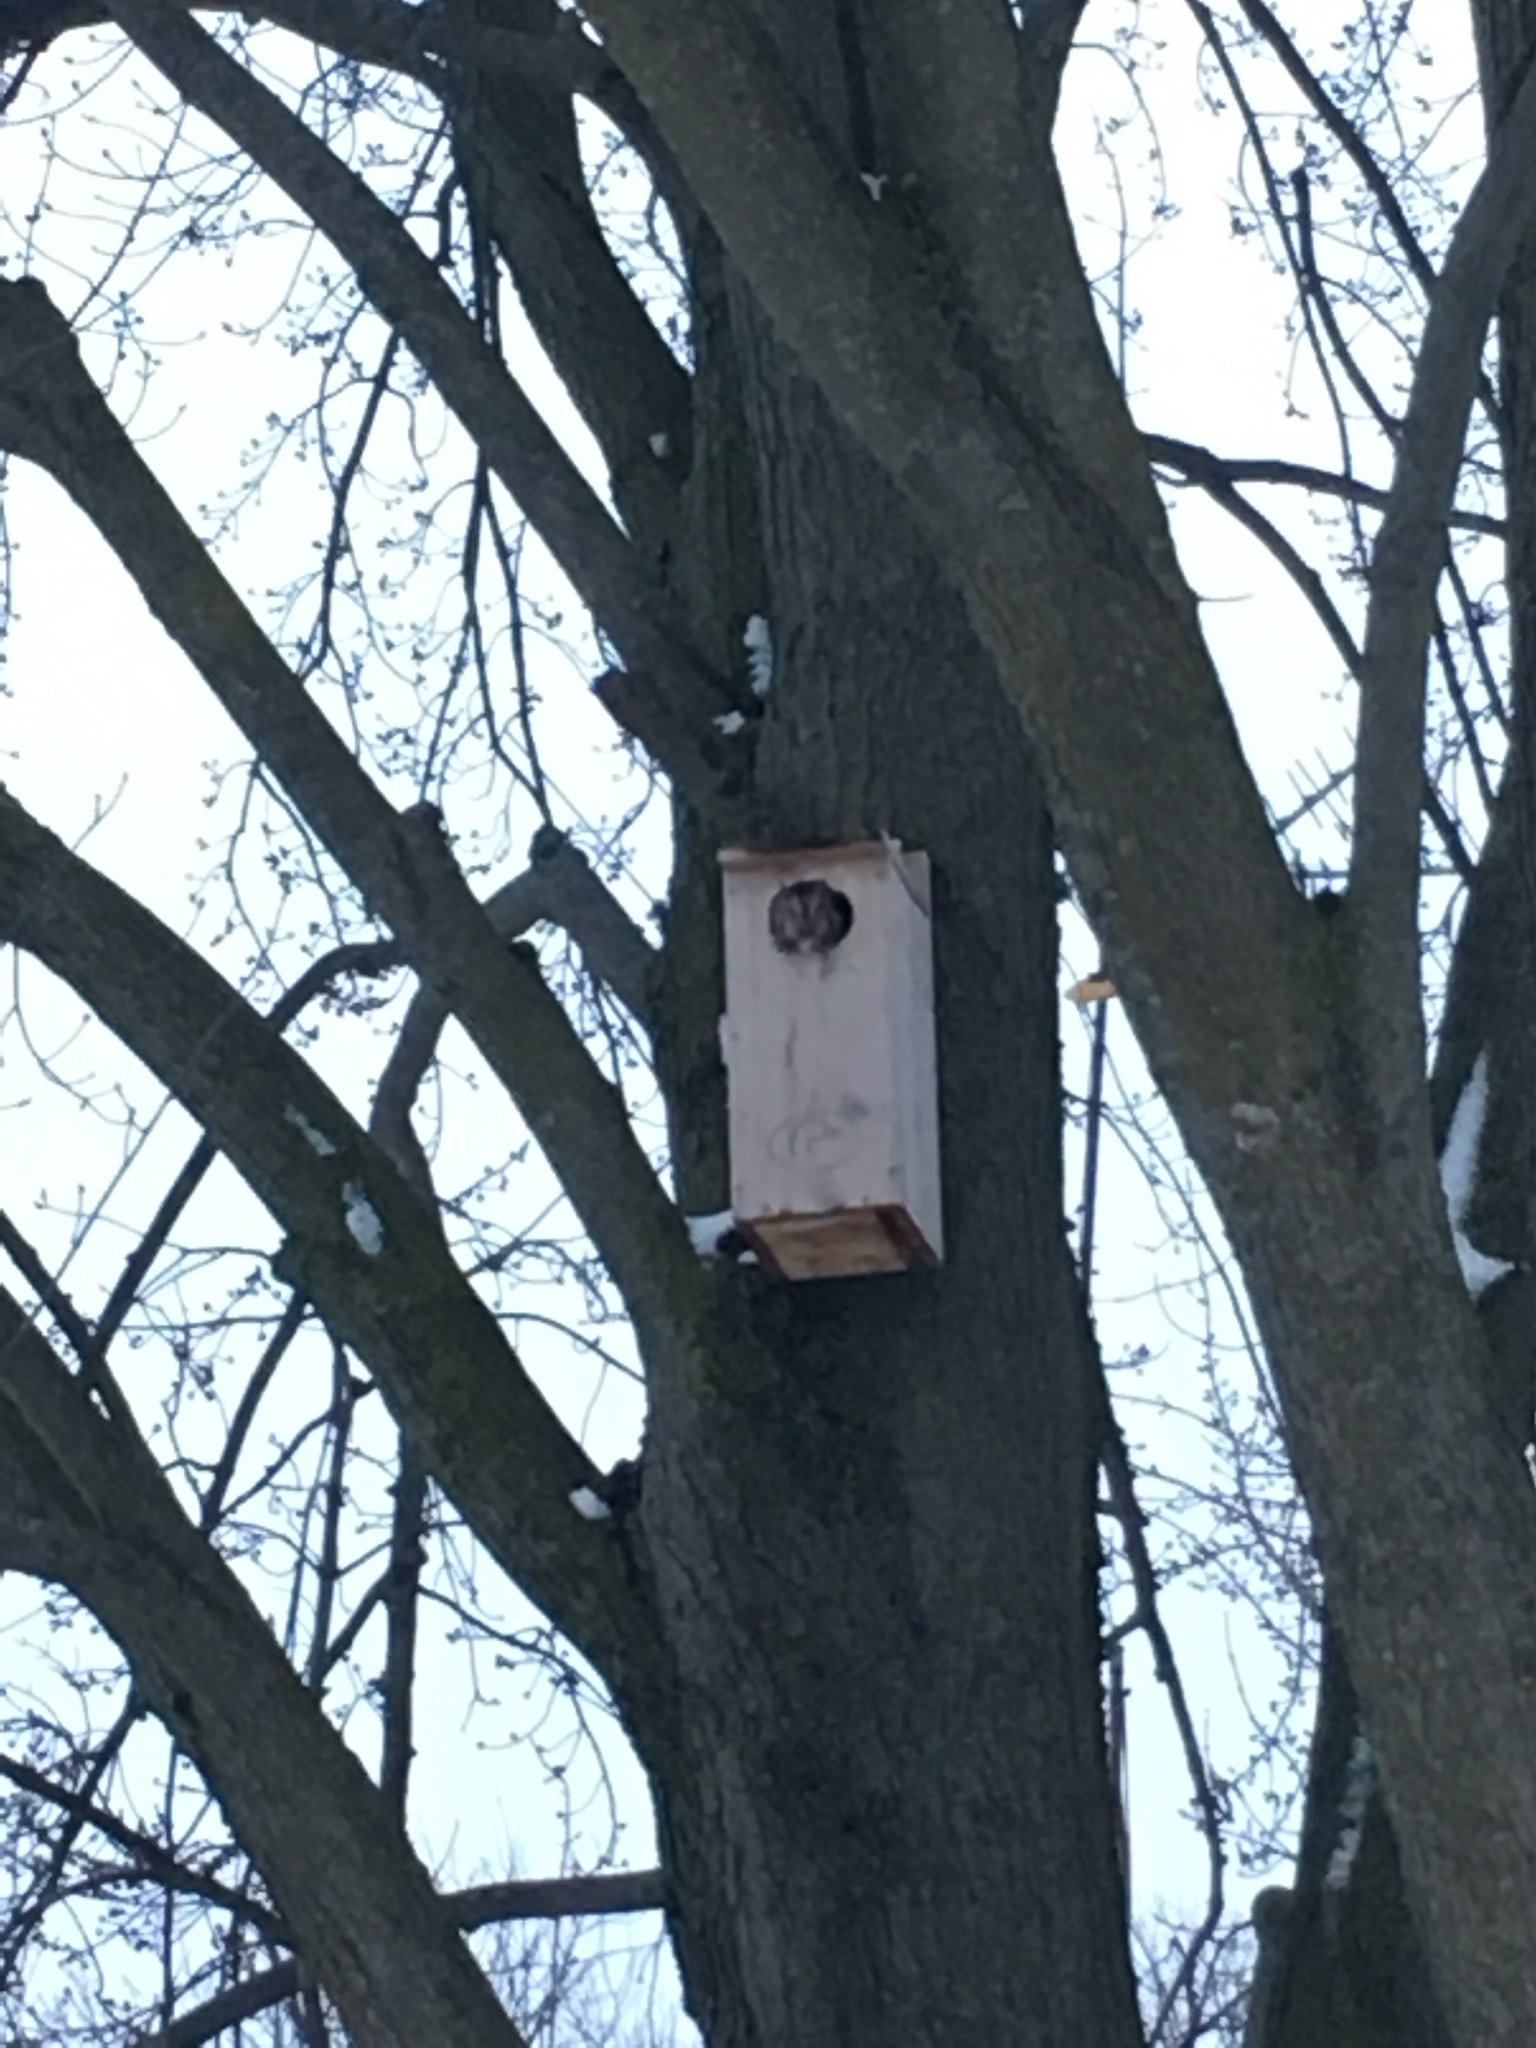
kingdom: Animalia
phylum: Chordata
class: Aves
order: Strigiformes
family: Strigidae
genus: Megascops
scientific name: Megascops asio
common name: Eastern screech-owl
